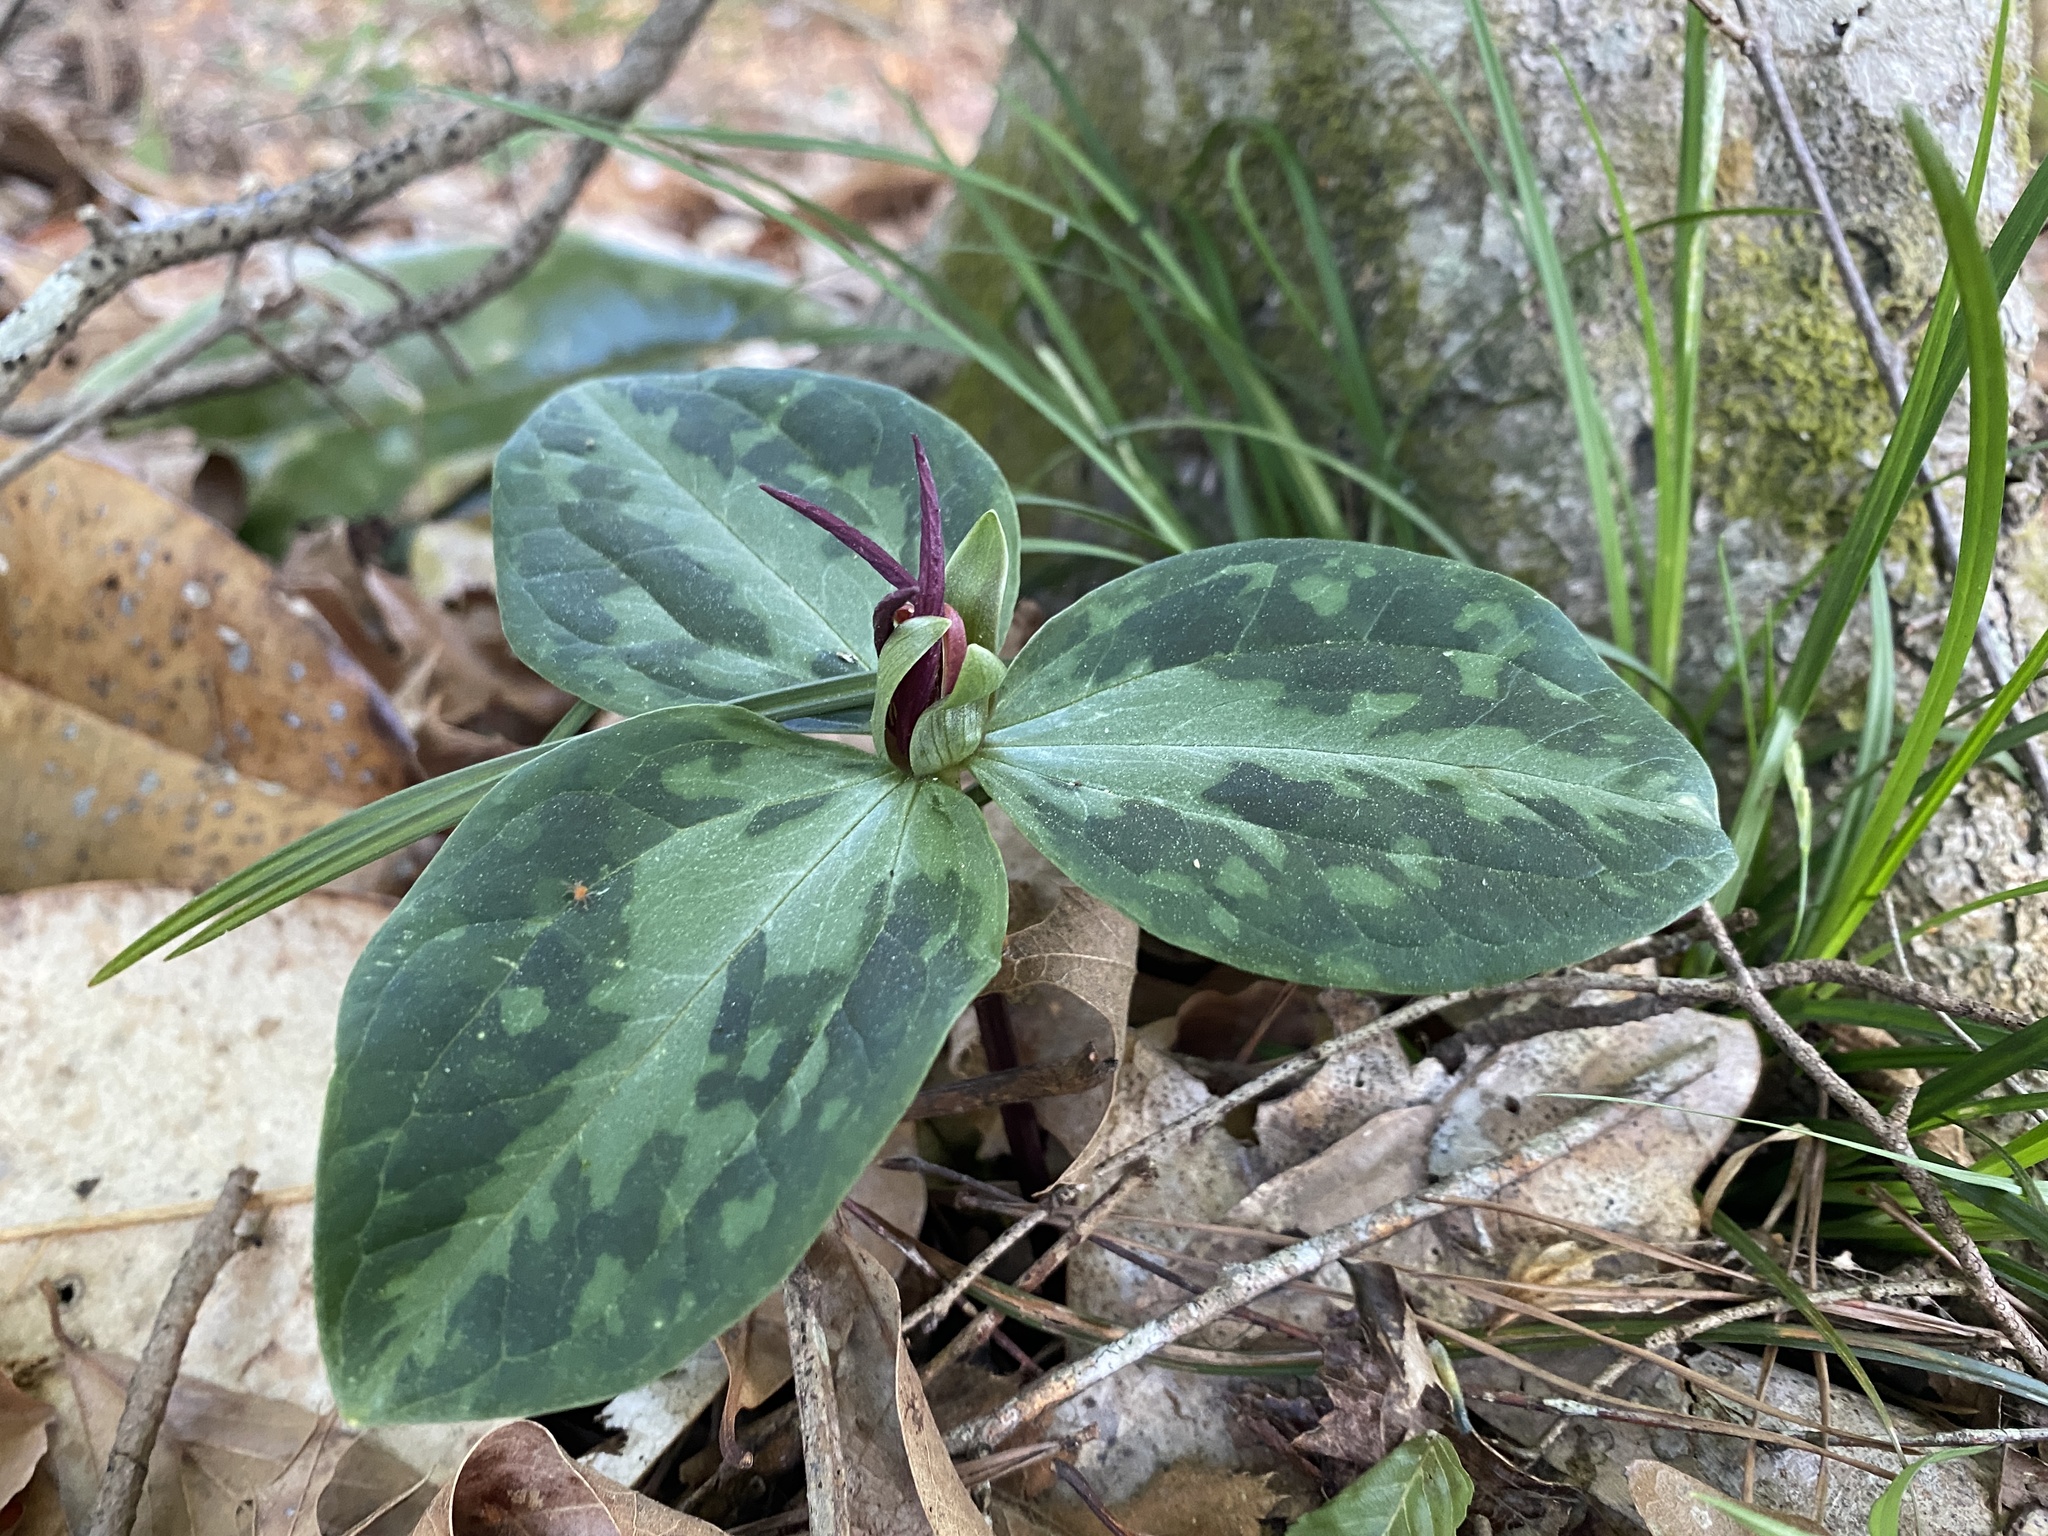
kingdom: Plantae
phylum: Tracheophyta
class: Liliopsida
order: Liliales
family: Melanthiaceae
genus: Trillium
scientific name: Trillium foetidissimum
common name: Mississippi river trillium
